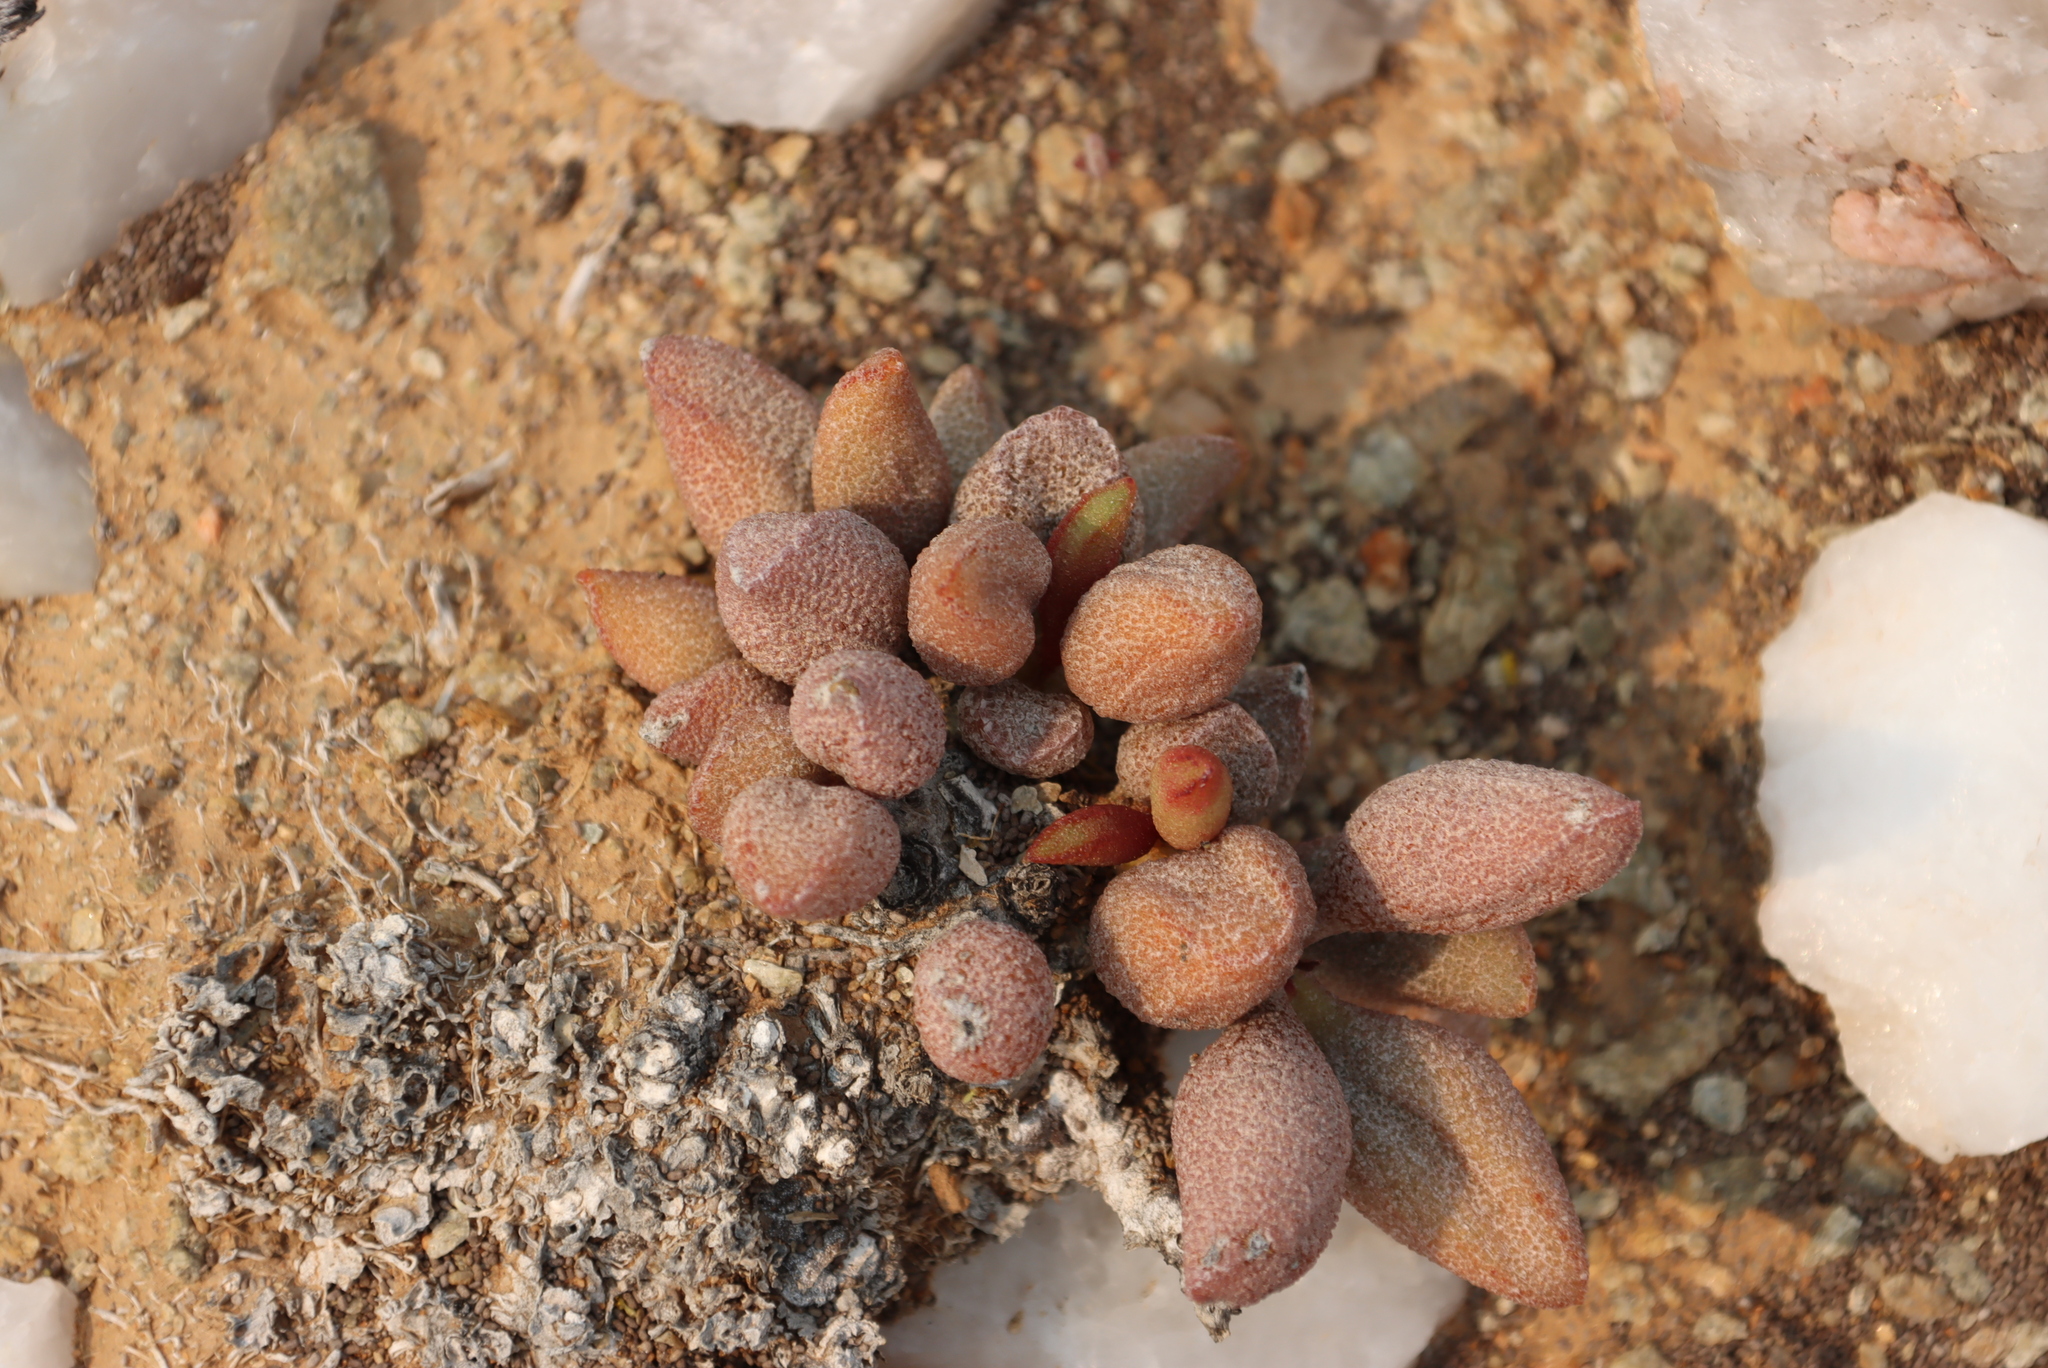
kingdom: Plantae
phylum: Tracheophyta
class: Magnoliopsida
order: Saxifragales
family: Crassulaceae
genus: Adromischus
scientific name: Adromischus marianiae
